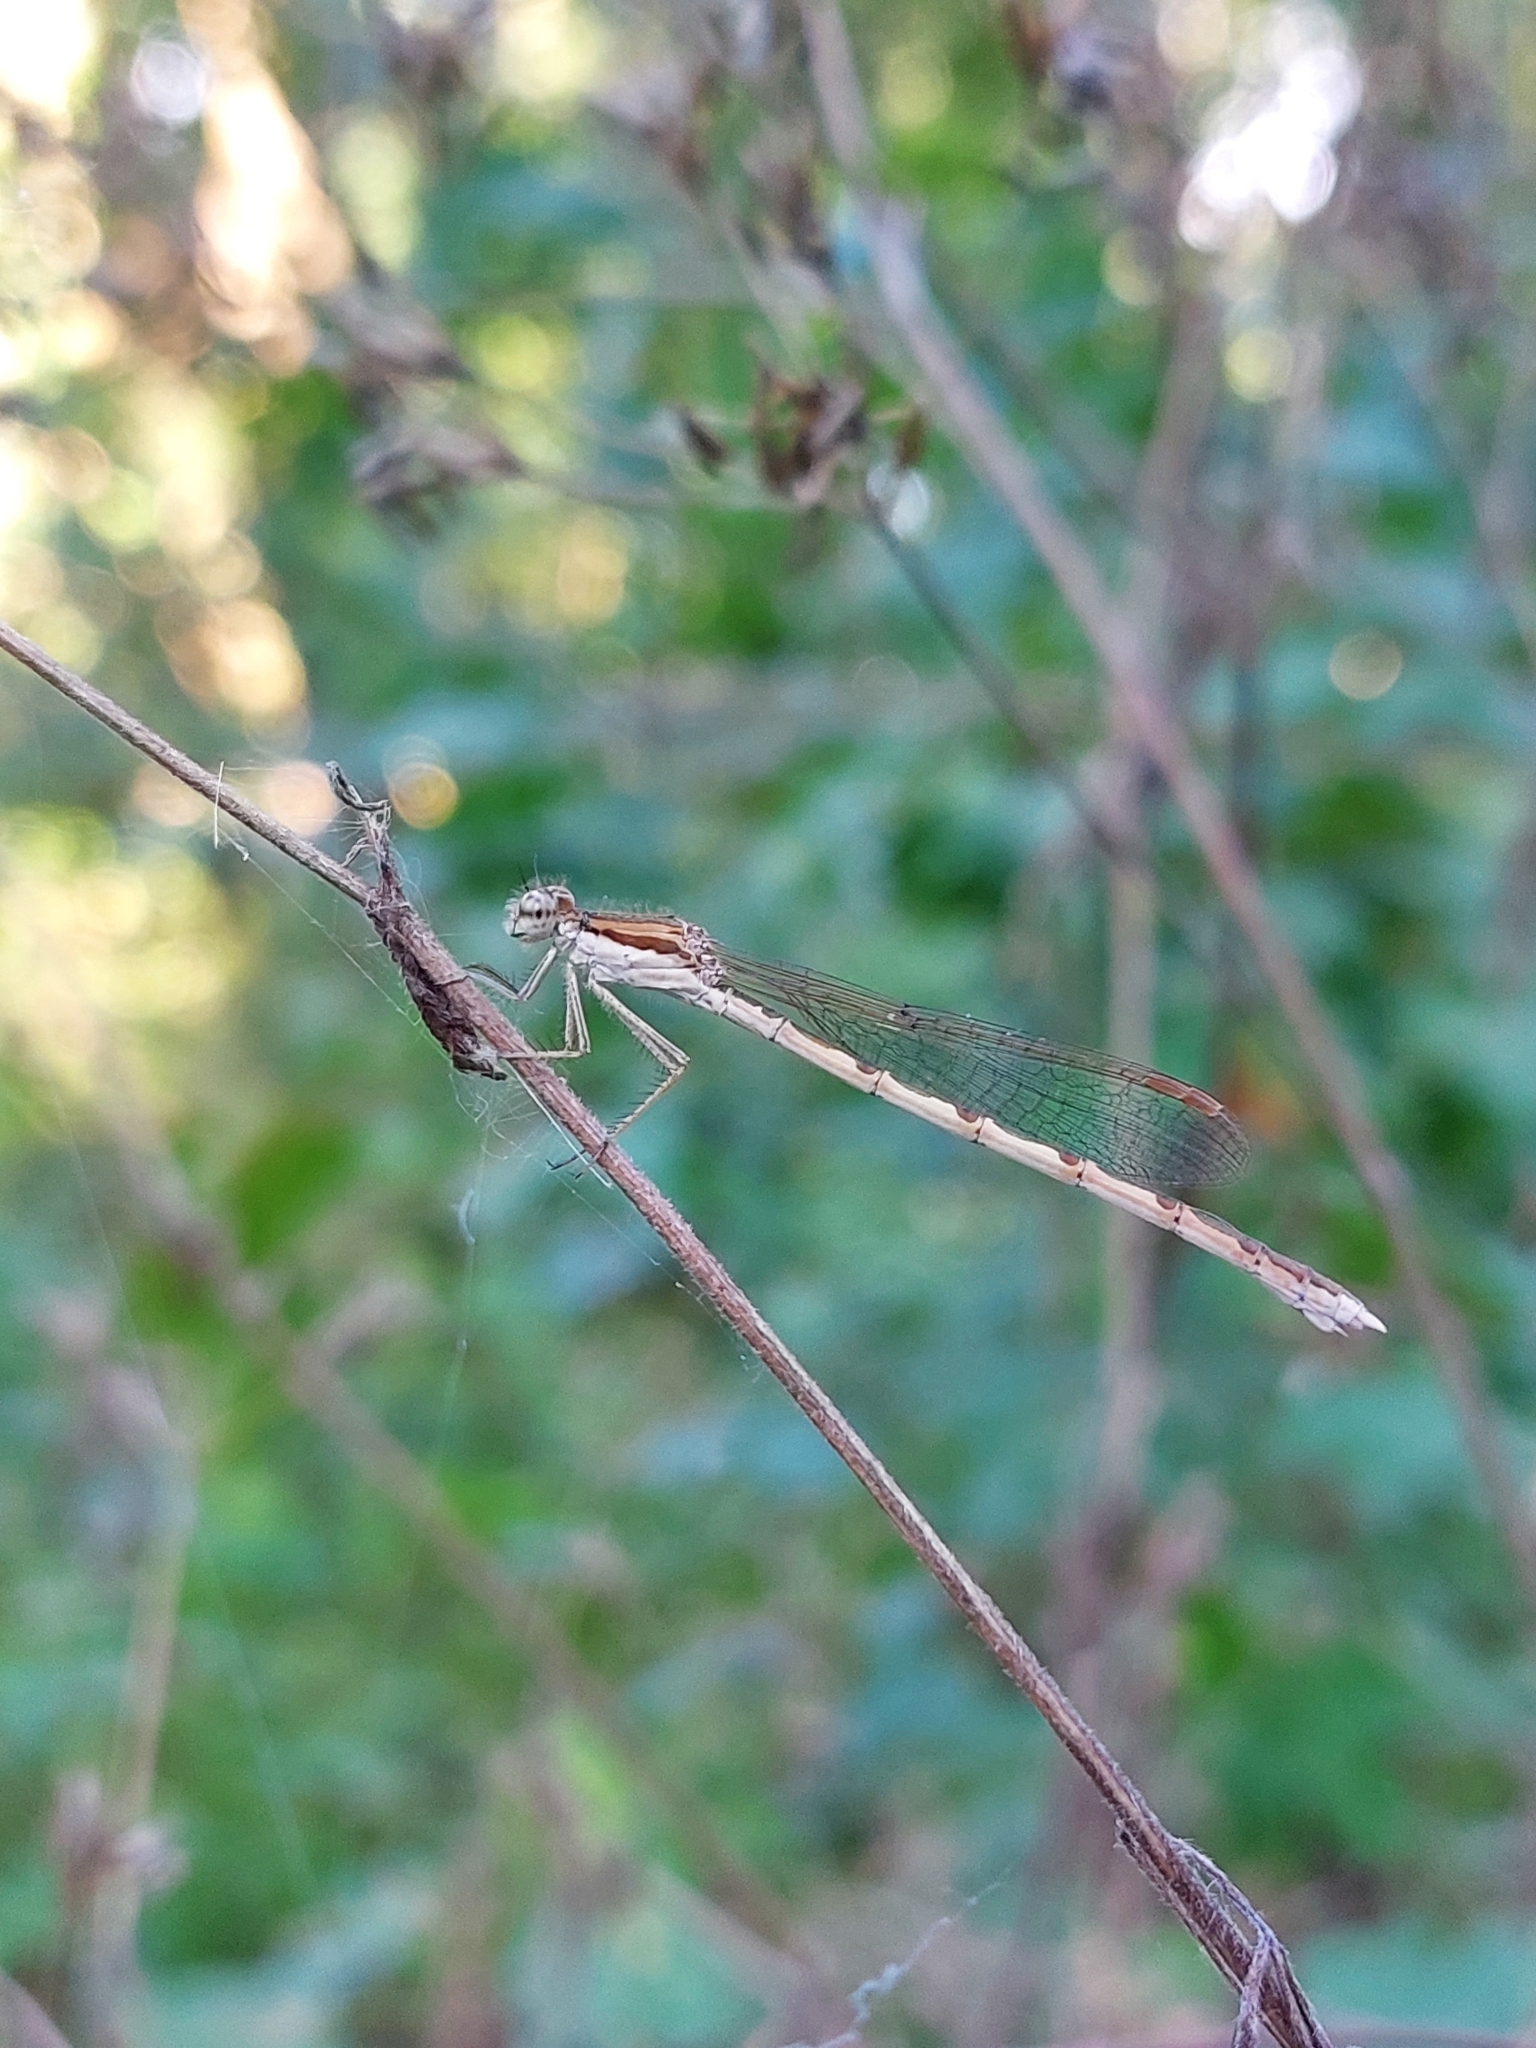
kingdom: Animalia
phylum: Arthropoda
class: Insecta
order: Odonata
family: Lestidae
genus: Sympecma
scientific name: Sympecma fusca
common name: Common winter damsel
